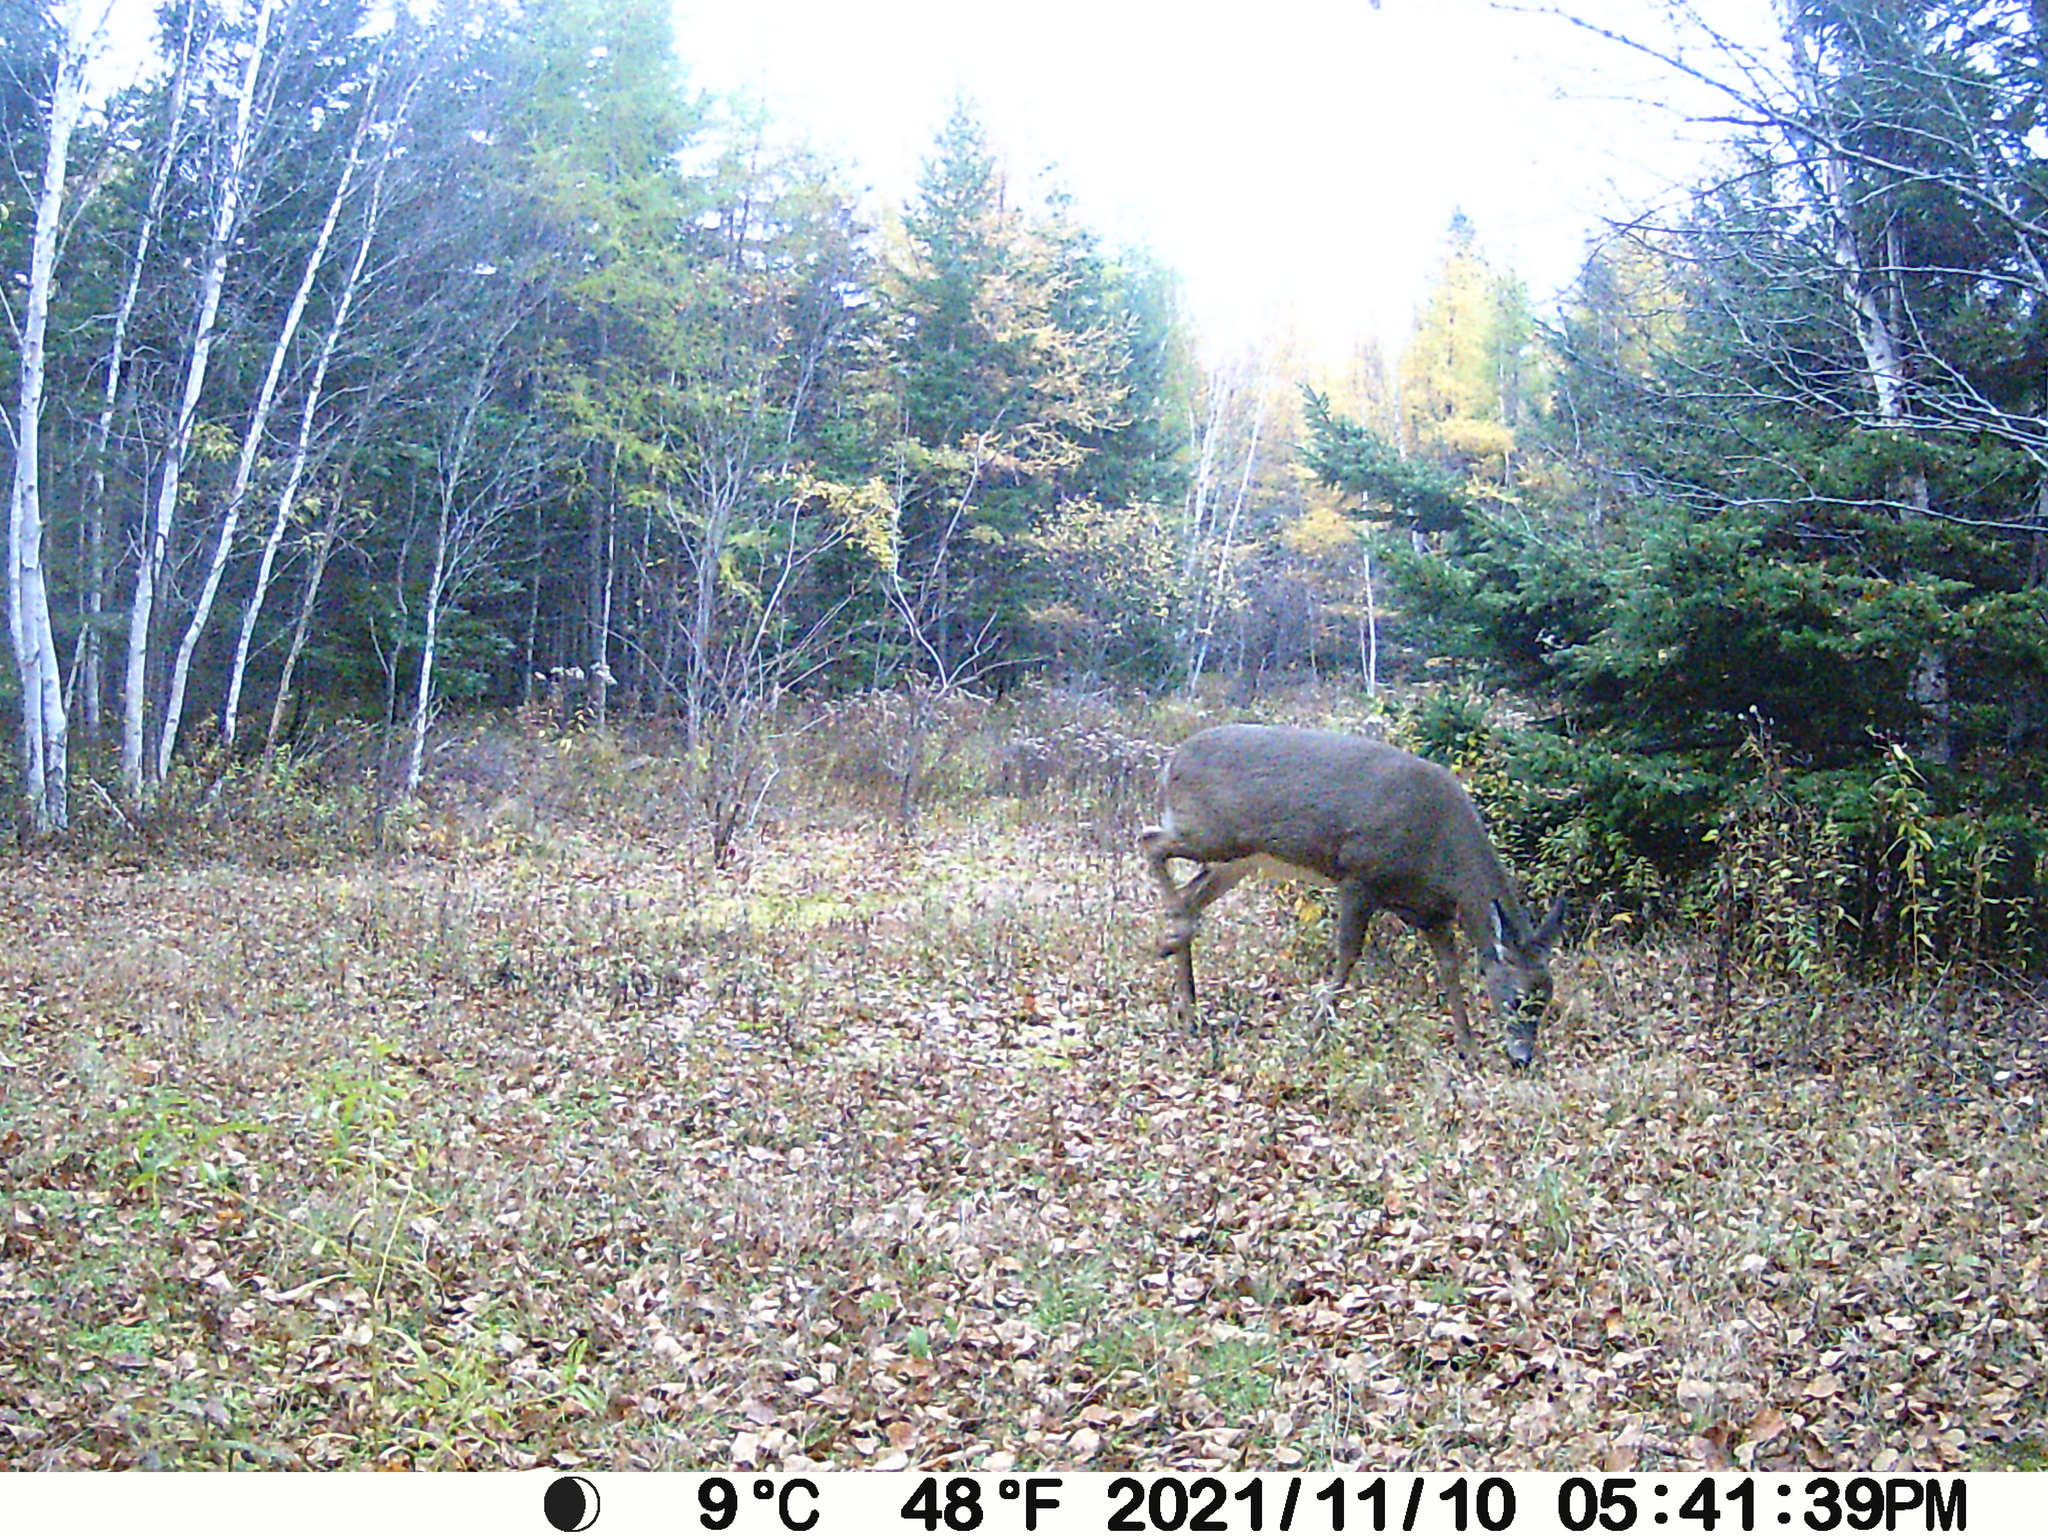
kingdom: Animalia
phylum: Chordata
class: Mammalia
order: Artiodactyla
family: Cervidae
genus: Odocoileus
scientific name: Odocoileus virginianus
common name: White-tailed deer
